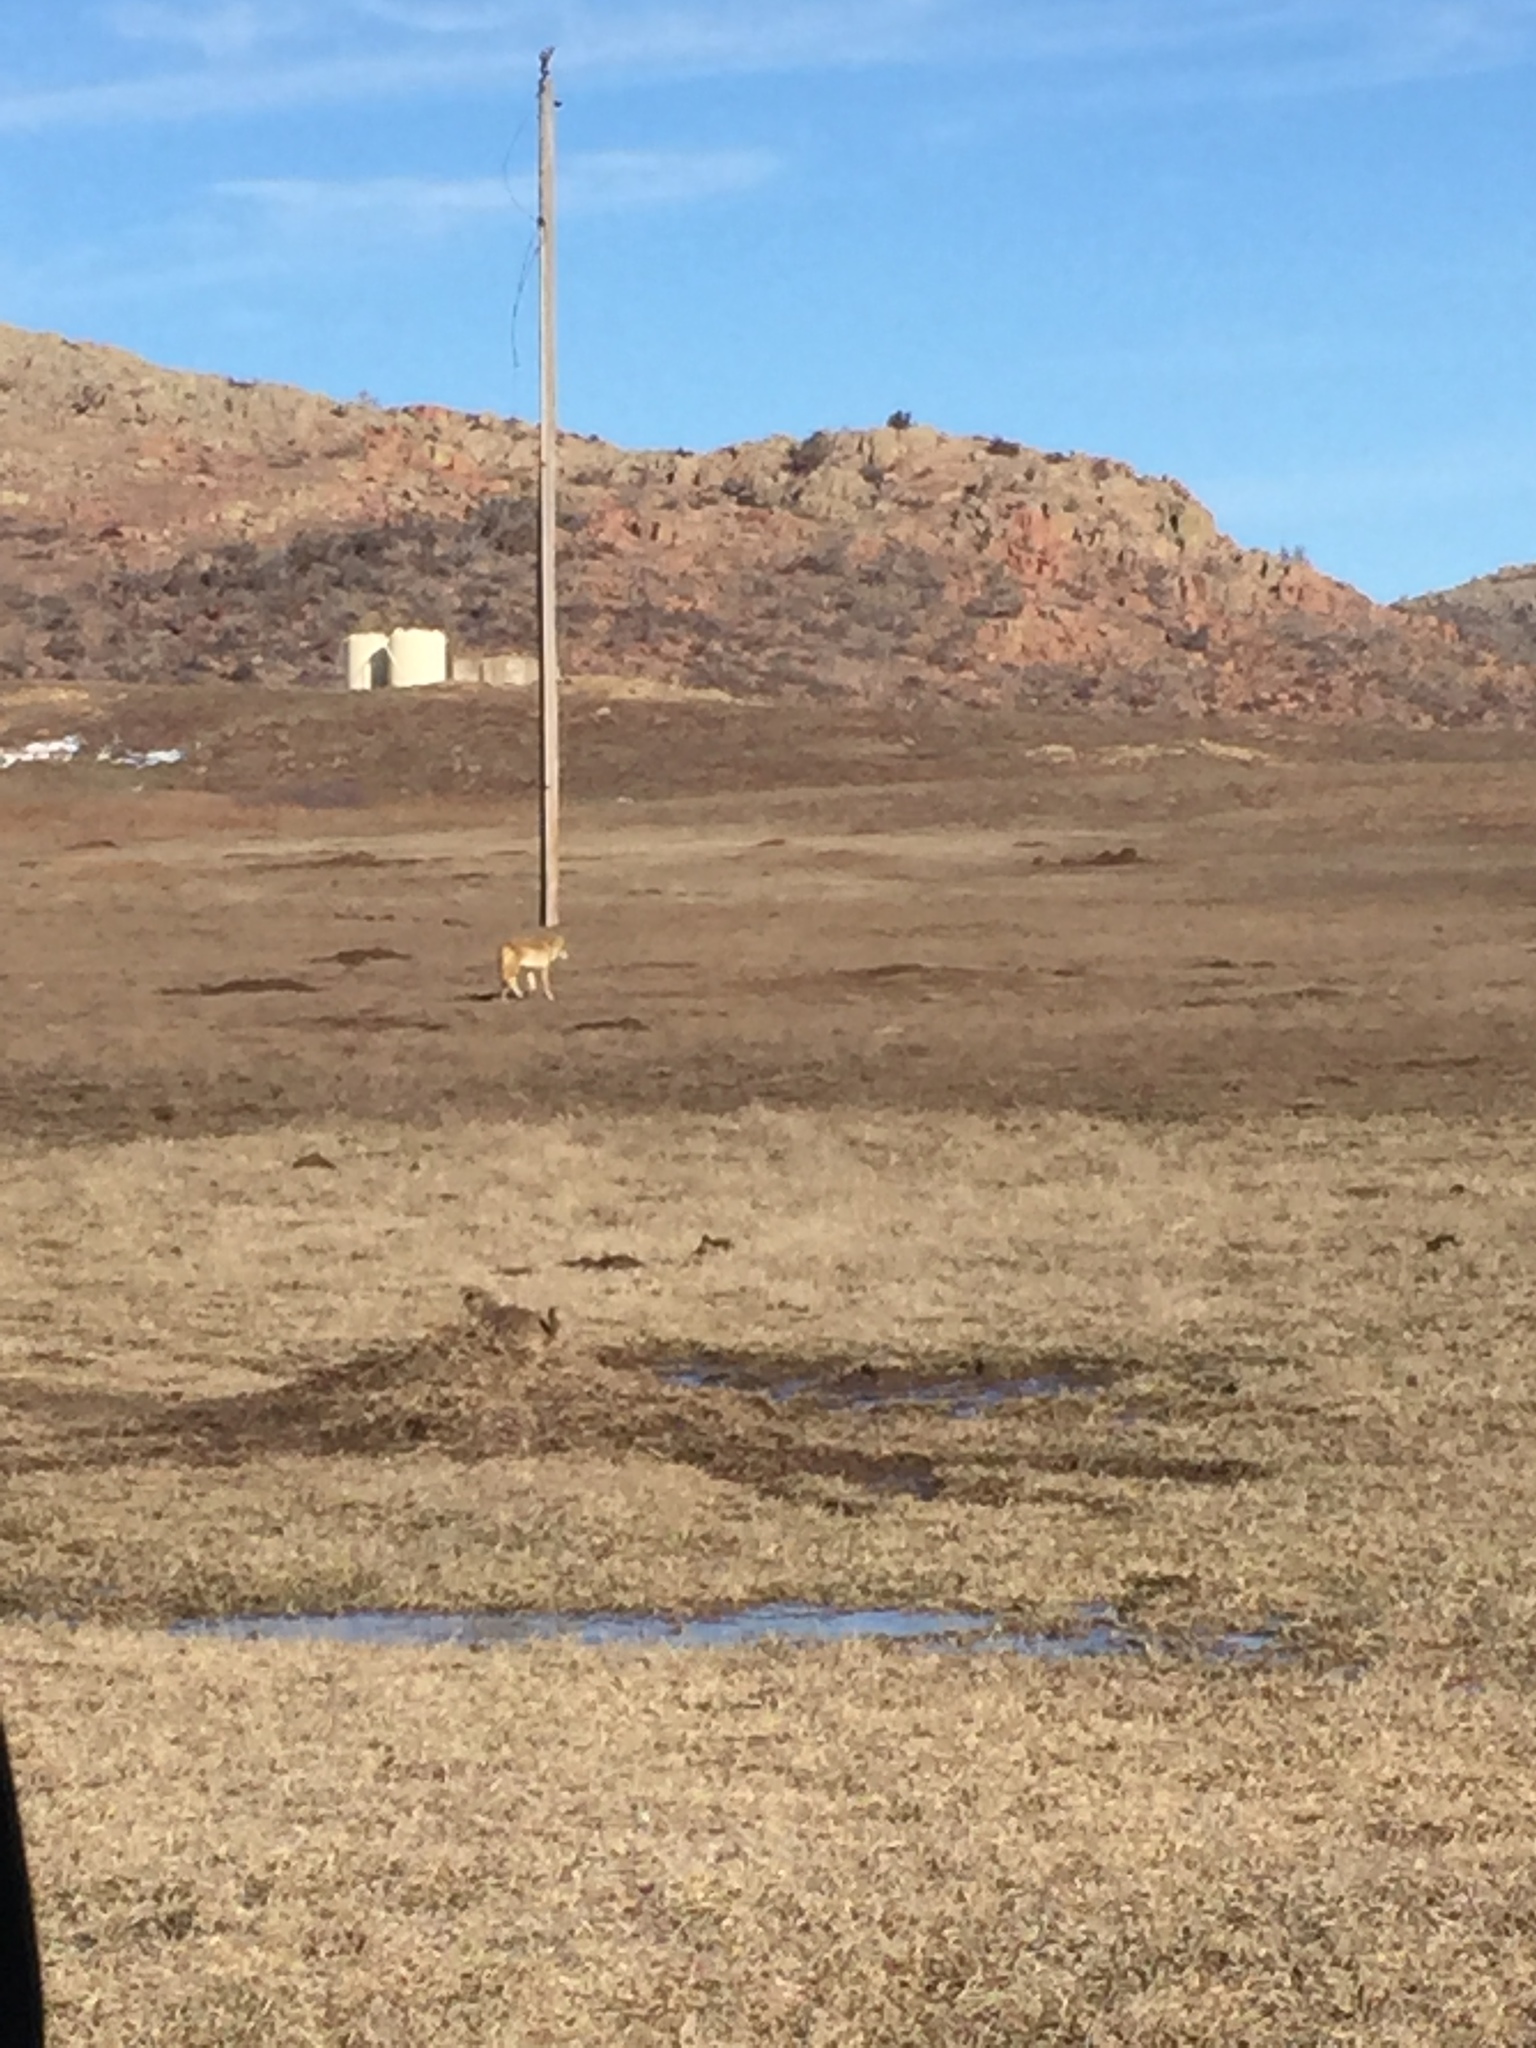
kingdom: Animalia
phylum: Chordata
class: Mammalia
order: Carnivora
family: Canidae
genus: Canis
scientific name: Canis latrans
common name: Coyote
